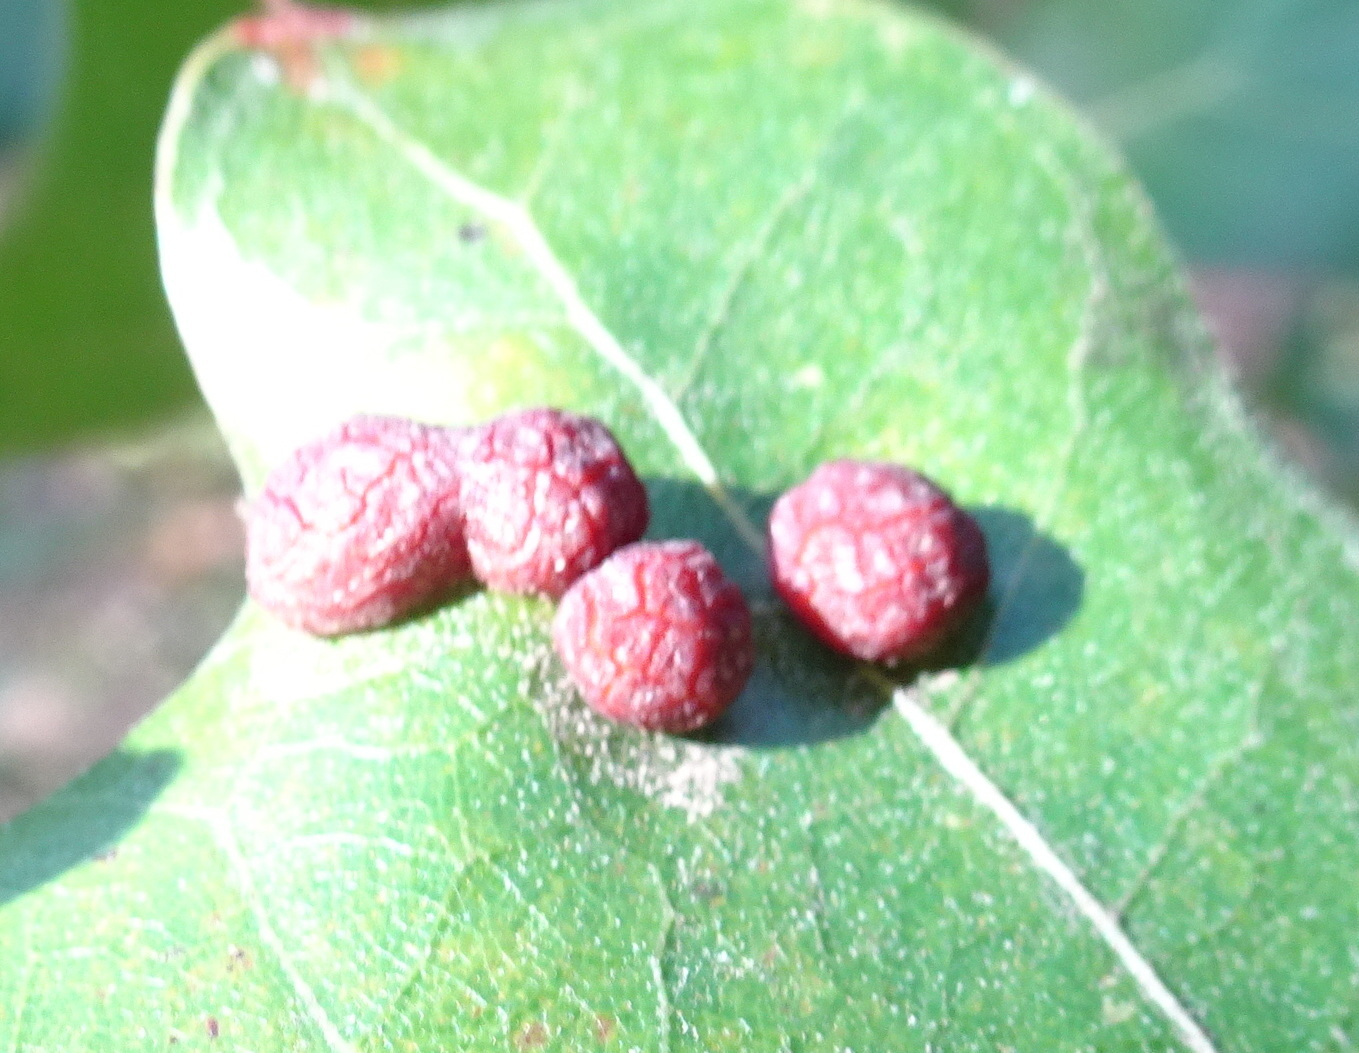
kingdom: Animalia
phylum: Arthropoda
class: Insecta
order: Diptera
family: Cecidomyiidae
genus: Polystepha
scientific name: Polystepha pilulae
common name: Oak leaf gall midge
